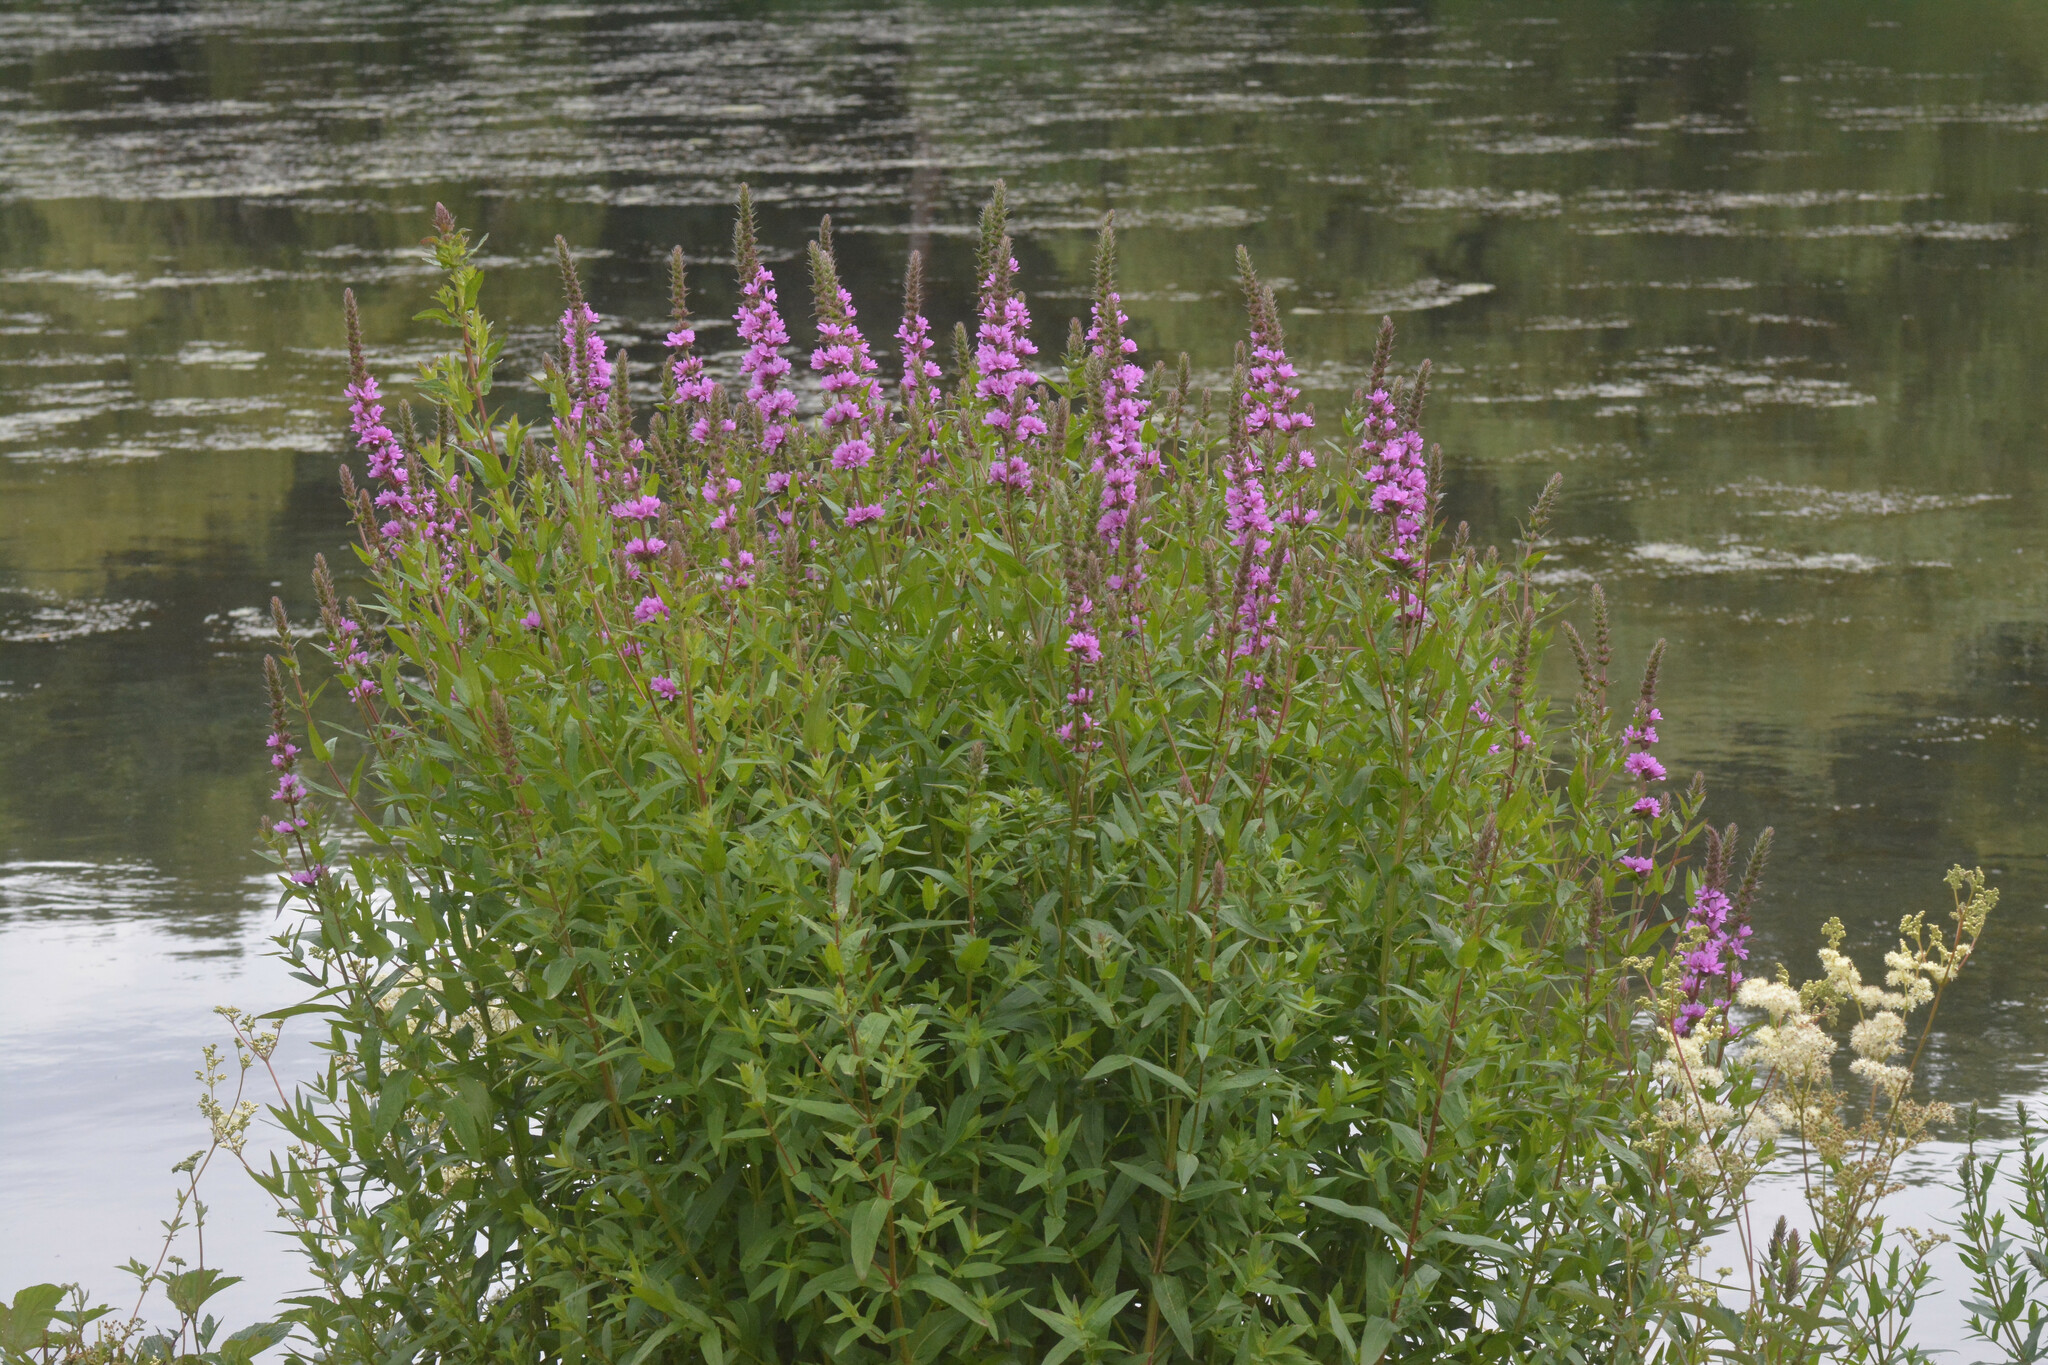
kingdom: Plantae
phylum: Tracheophyta
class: Magnoliopsida
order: Myrtales
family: Lythraceae
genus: Lythrum
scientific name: Lythrum salicaria
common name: Purple loosestrife
